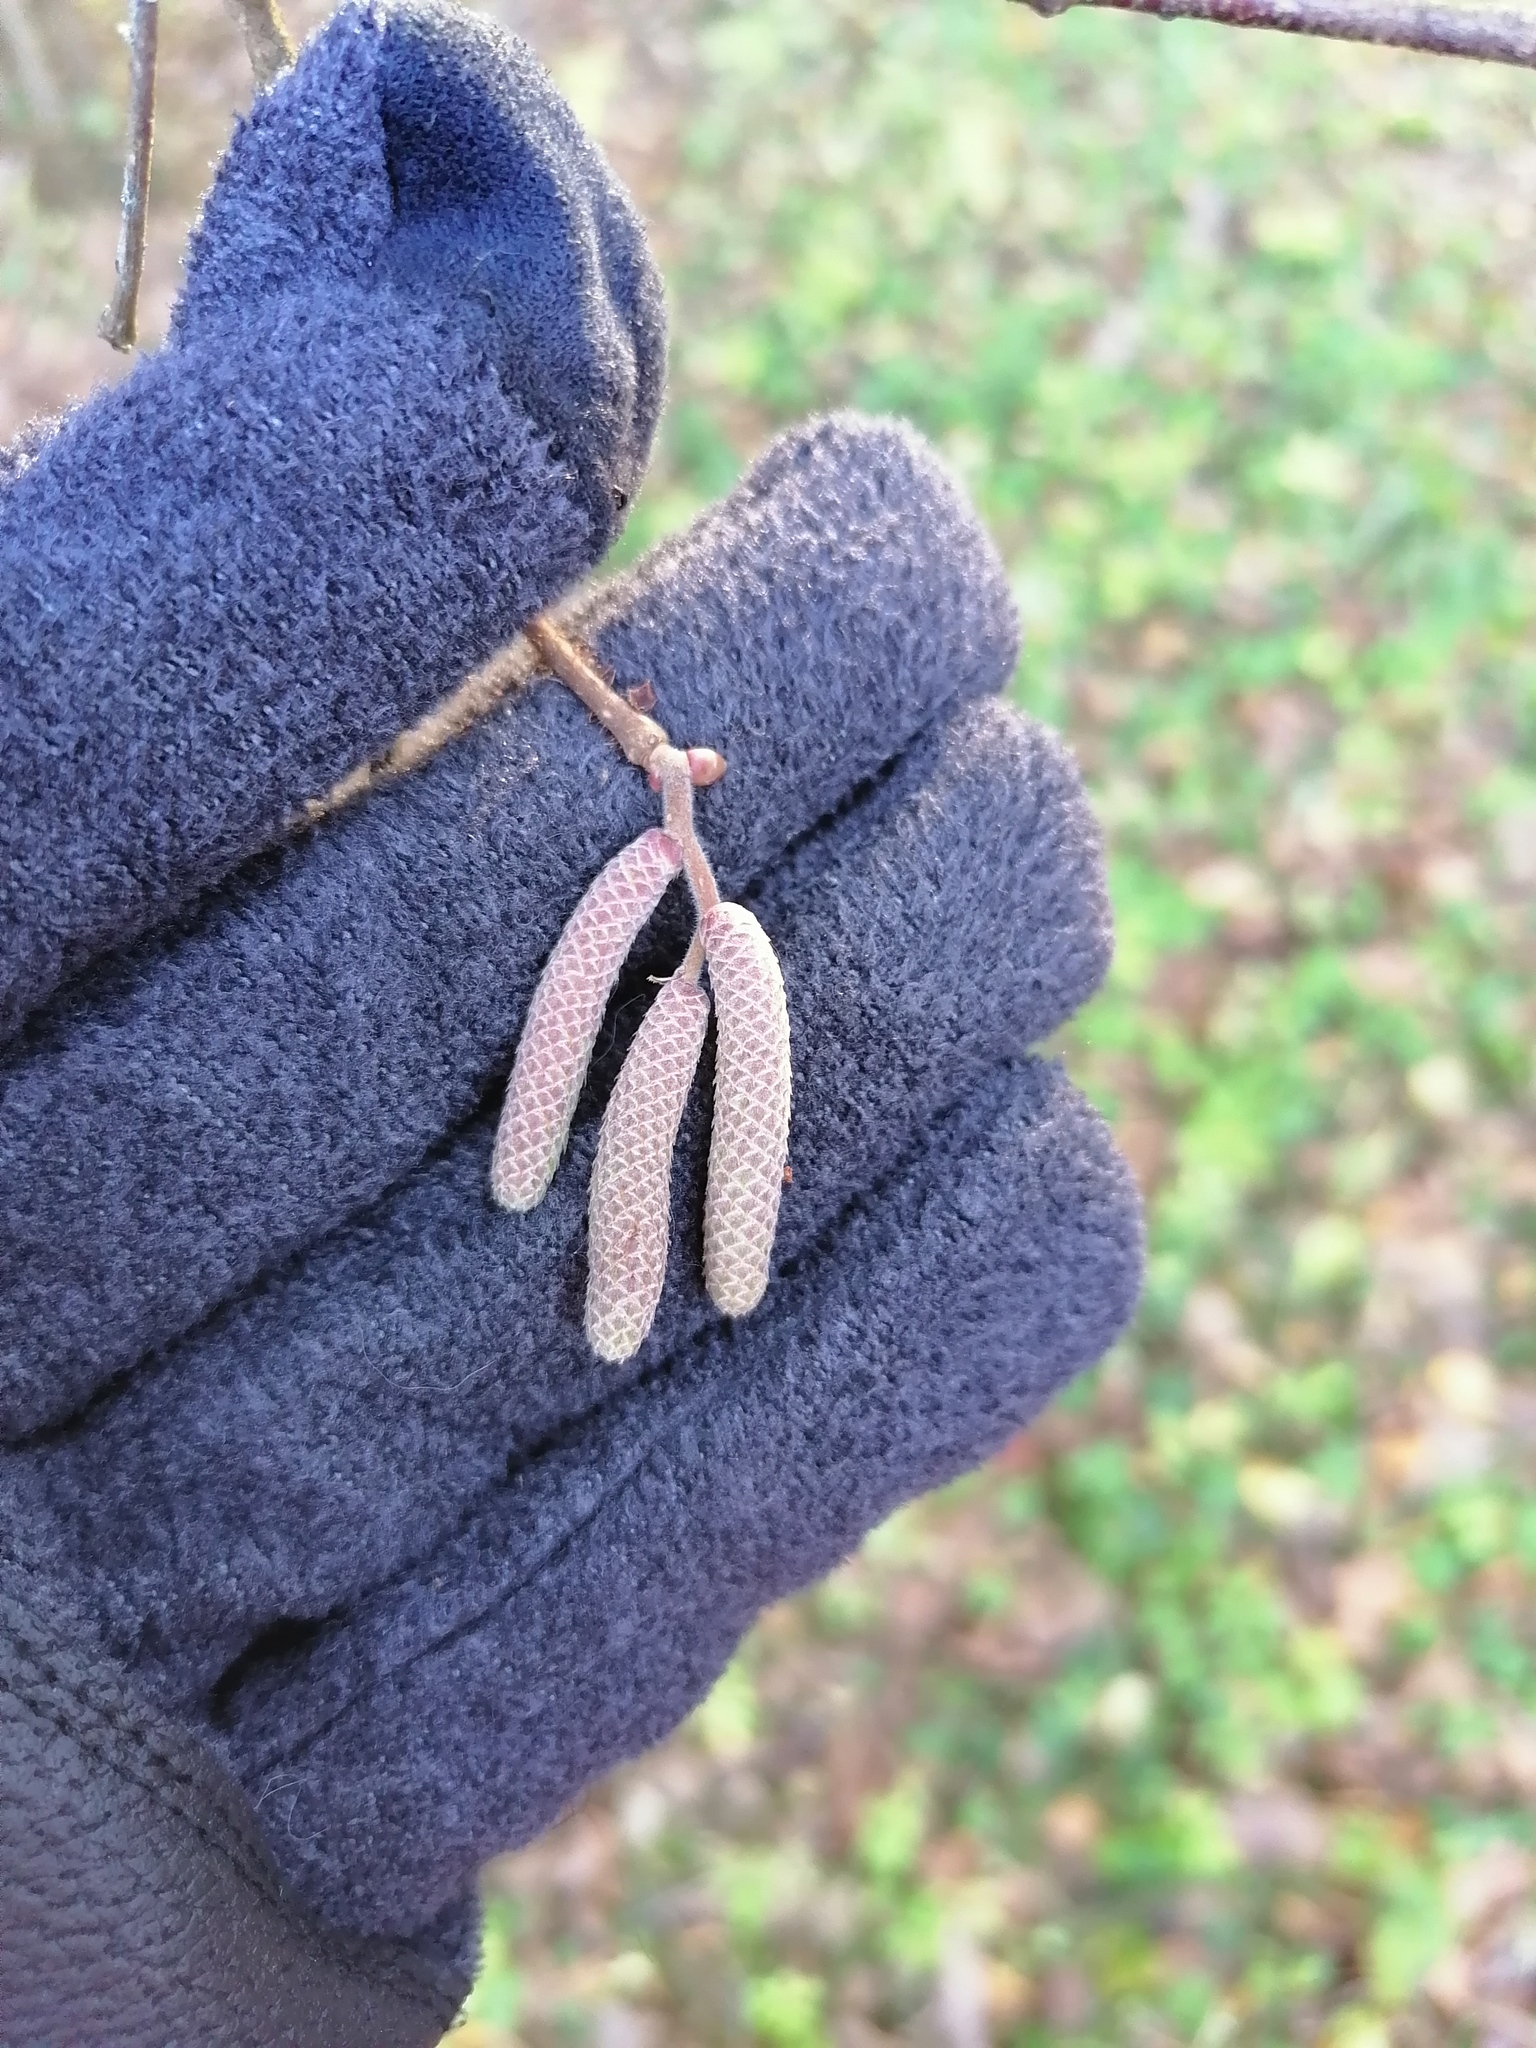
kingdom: Plantae
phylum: Tracheophyta
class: Magnoliopsida
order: Fagales
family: Betulaceae
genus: Corylus
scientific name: Corylus avellana
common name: European hazel
